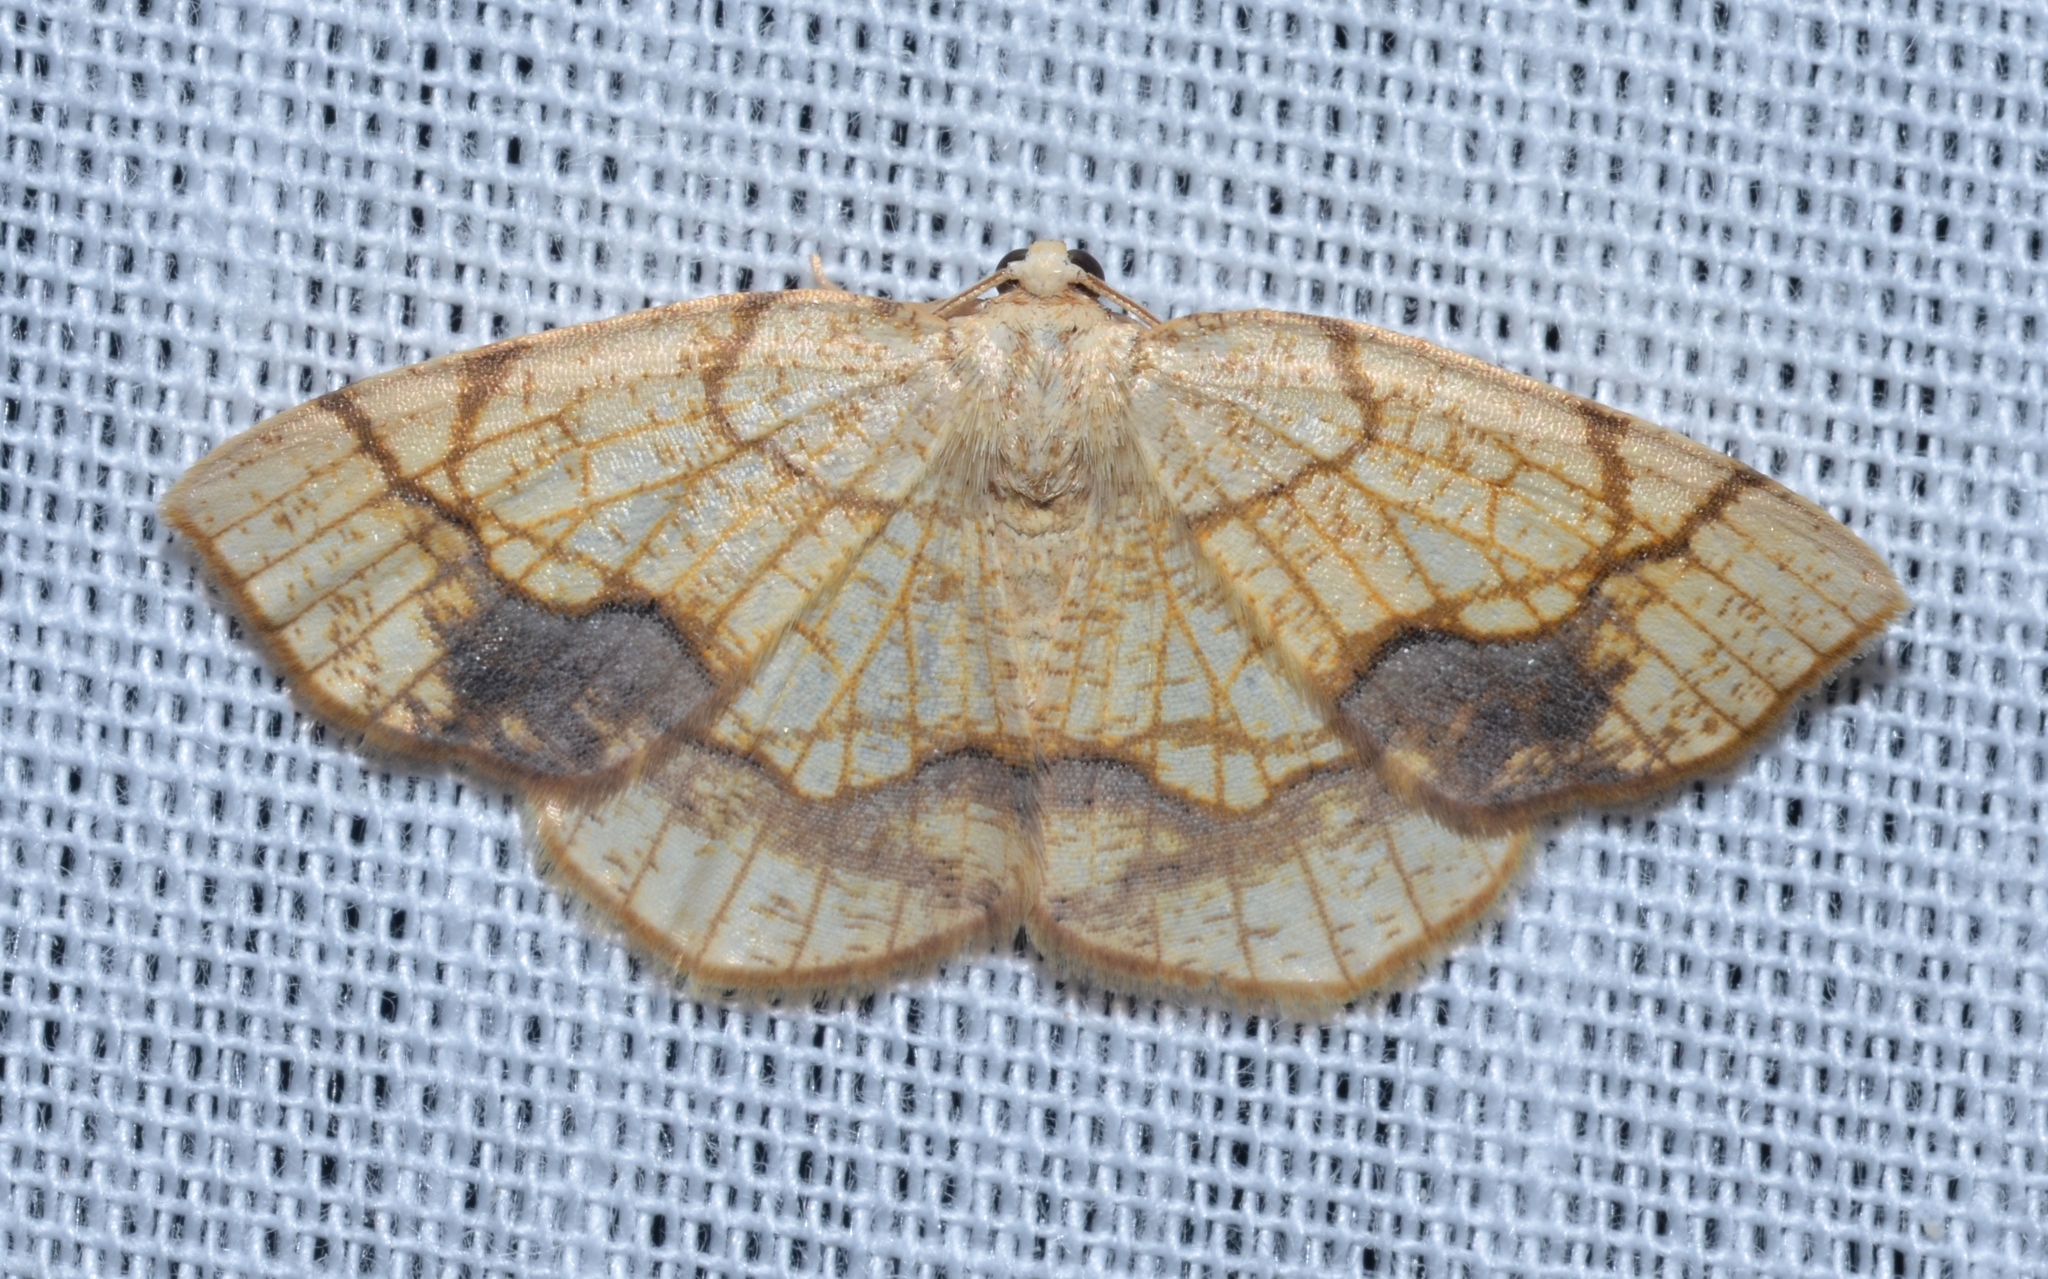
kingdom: Animalia
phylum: Arthropoda
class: Insecta
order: Lepidoptera
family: Geometridae
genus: Nematocampa
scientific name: Nematocampa resistaria
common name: Horned spanworm moth
